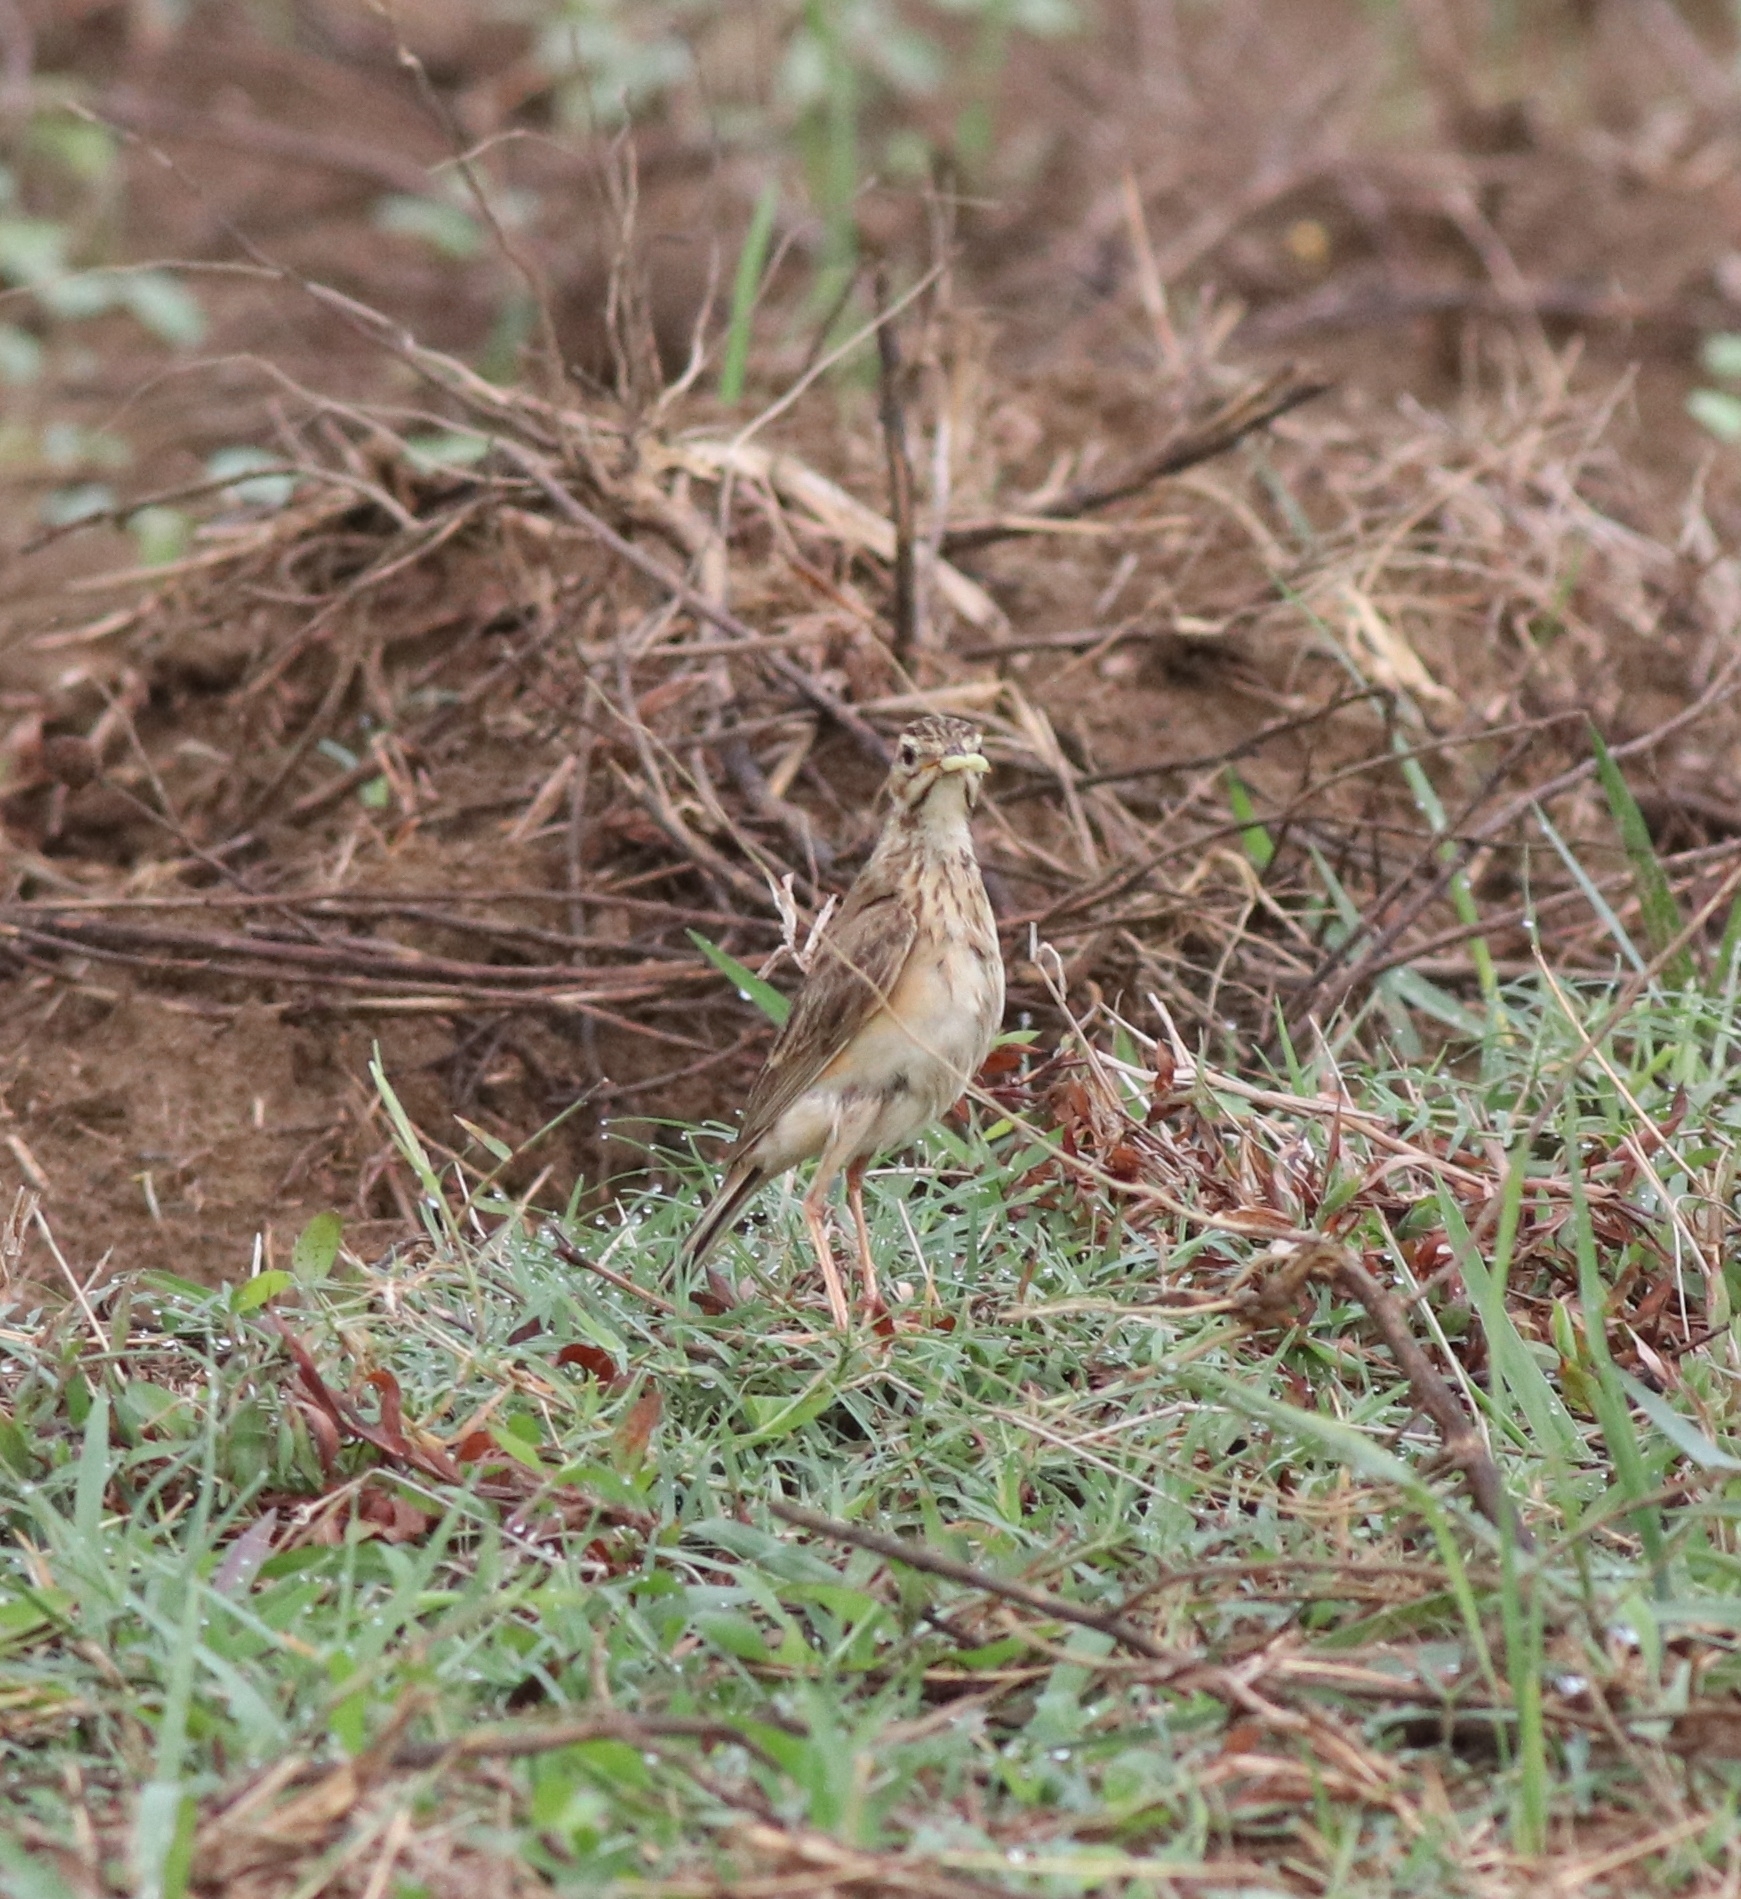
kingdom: Animalia
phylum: Chordata
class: Aves
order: Passeriformes
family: Motacillidae
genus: Anthus
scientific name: Anthus rufulus
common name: Paddyfield pipit
